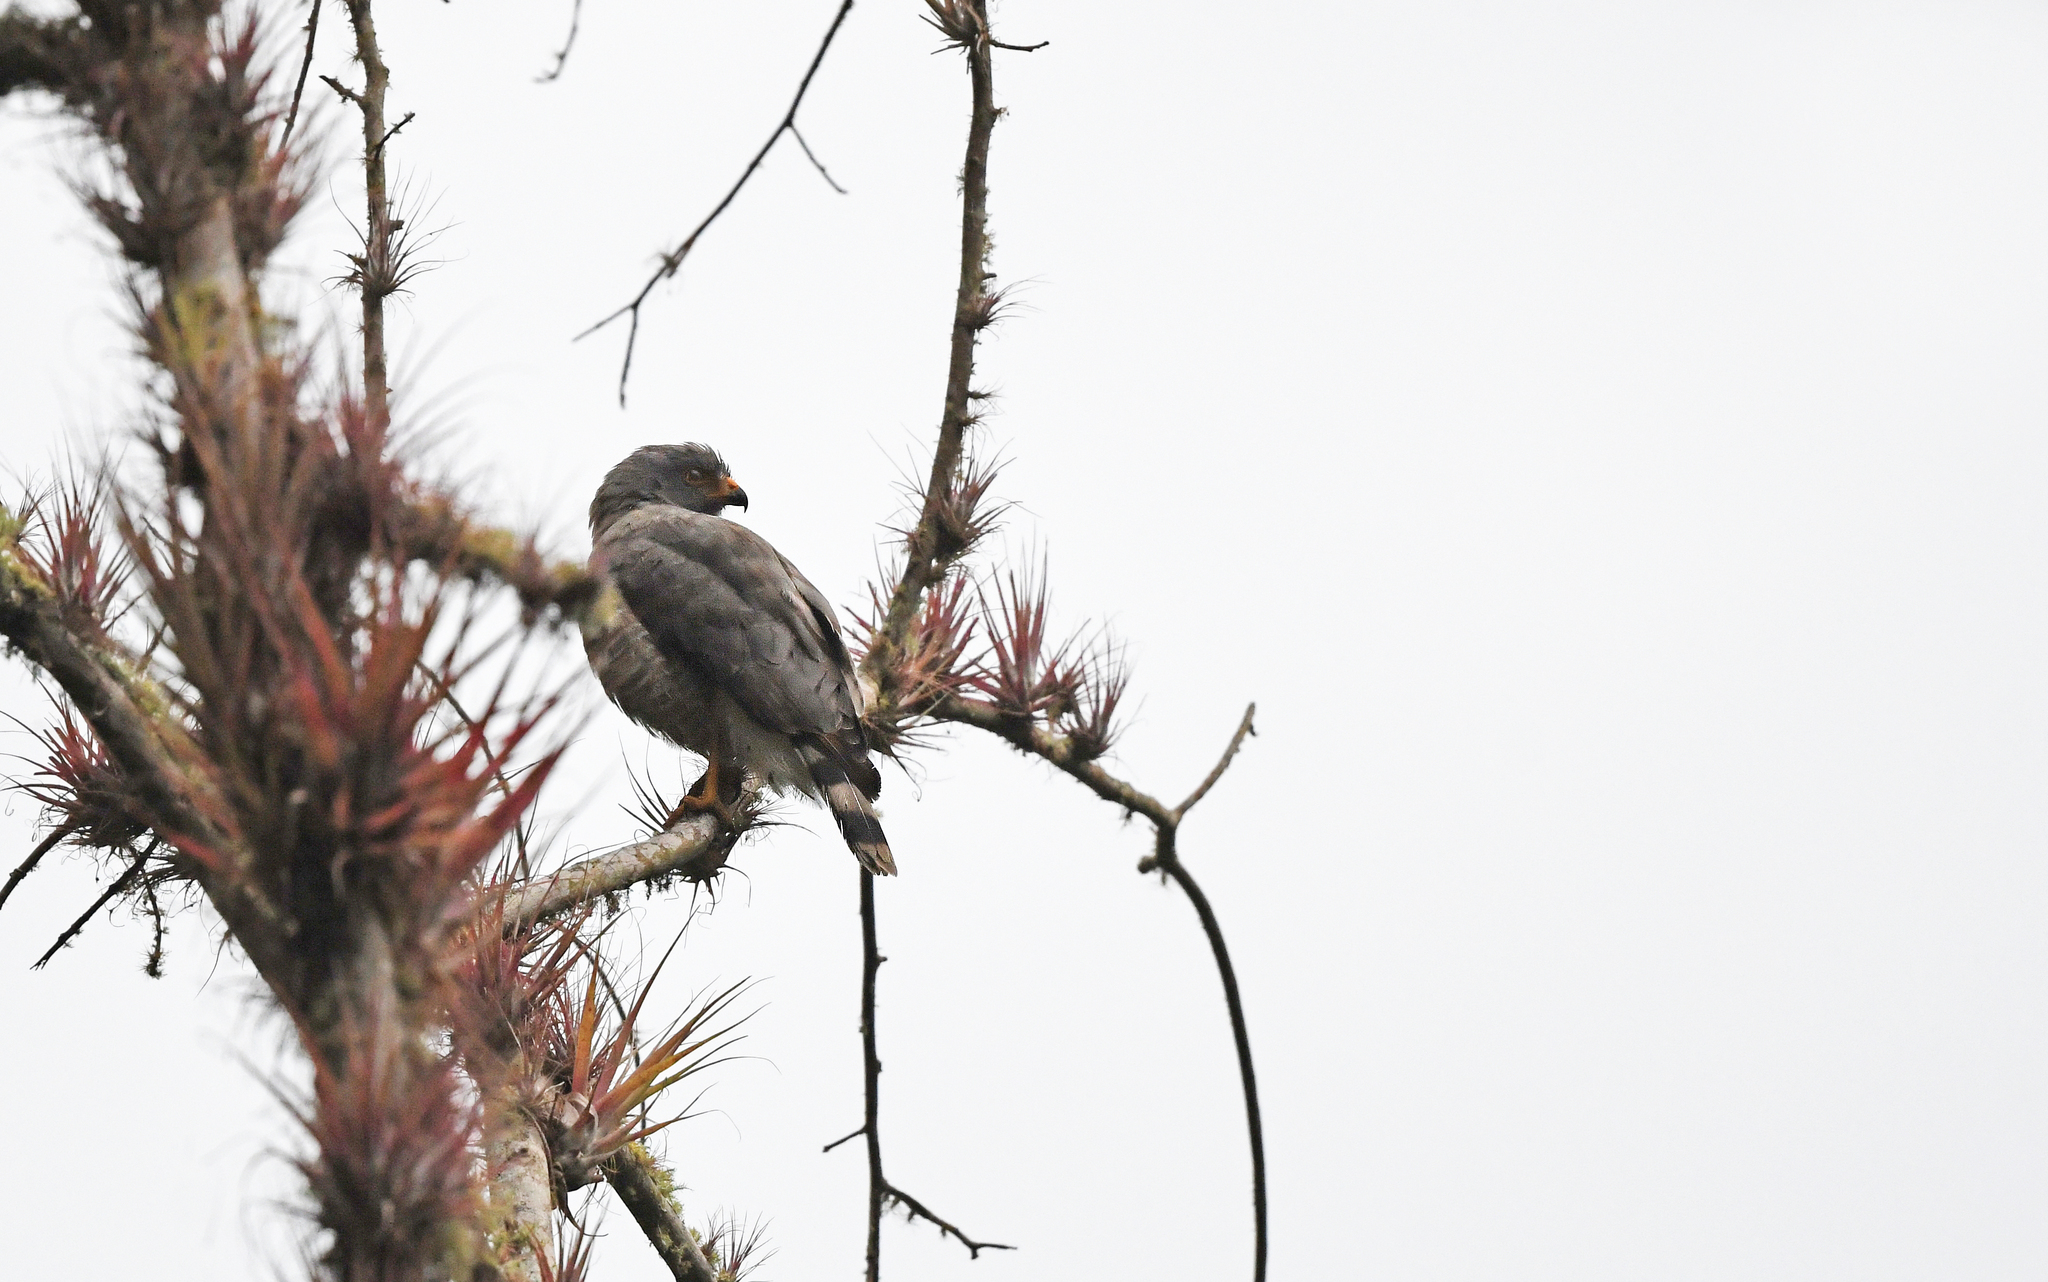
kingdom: Animalia
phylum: Chordata
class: Aves
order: Accipitriformes
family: Accipitridae
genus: Rupornis
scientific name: Rupornis magnirostris
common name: Roadside hawk
